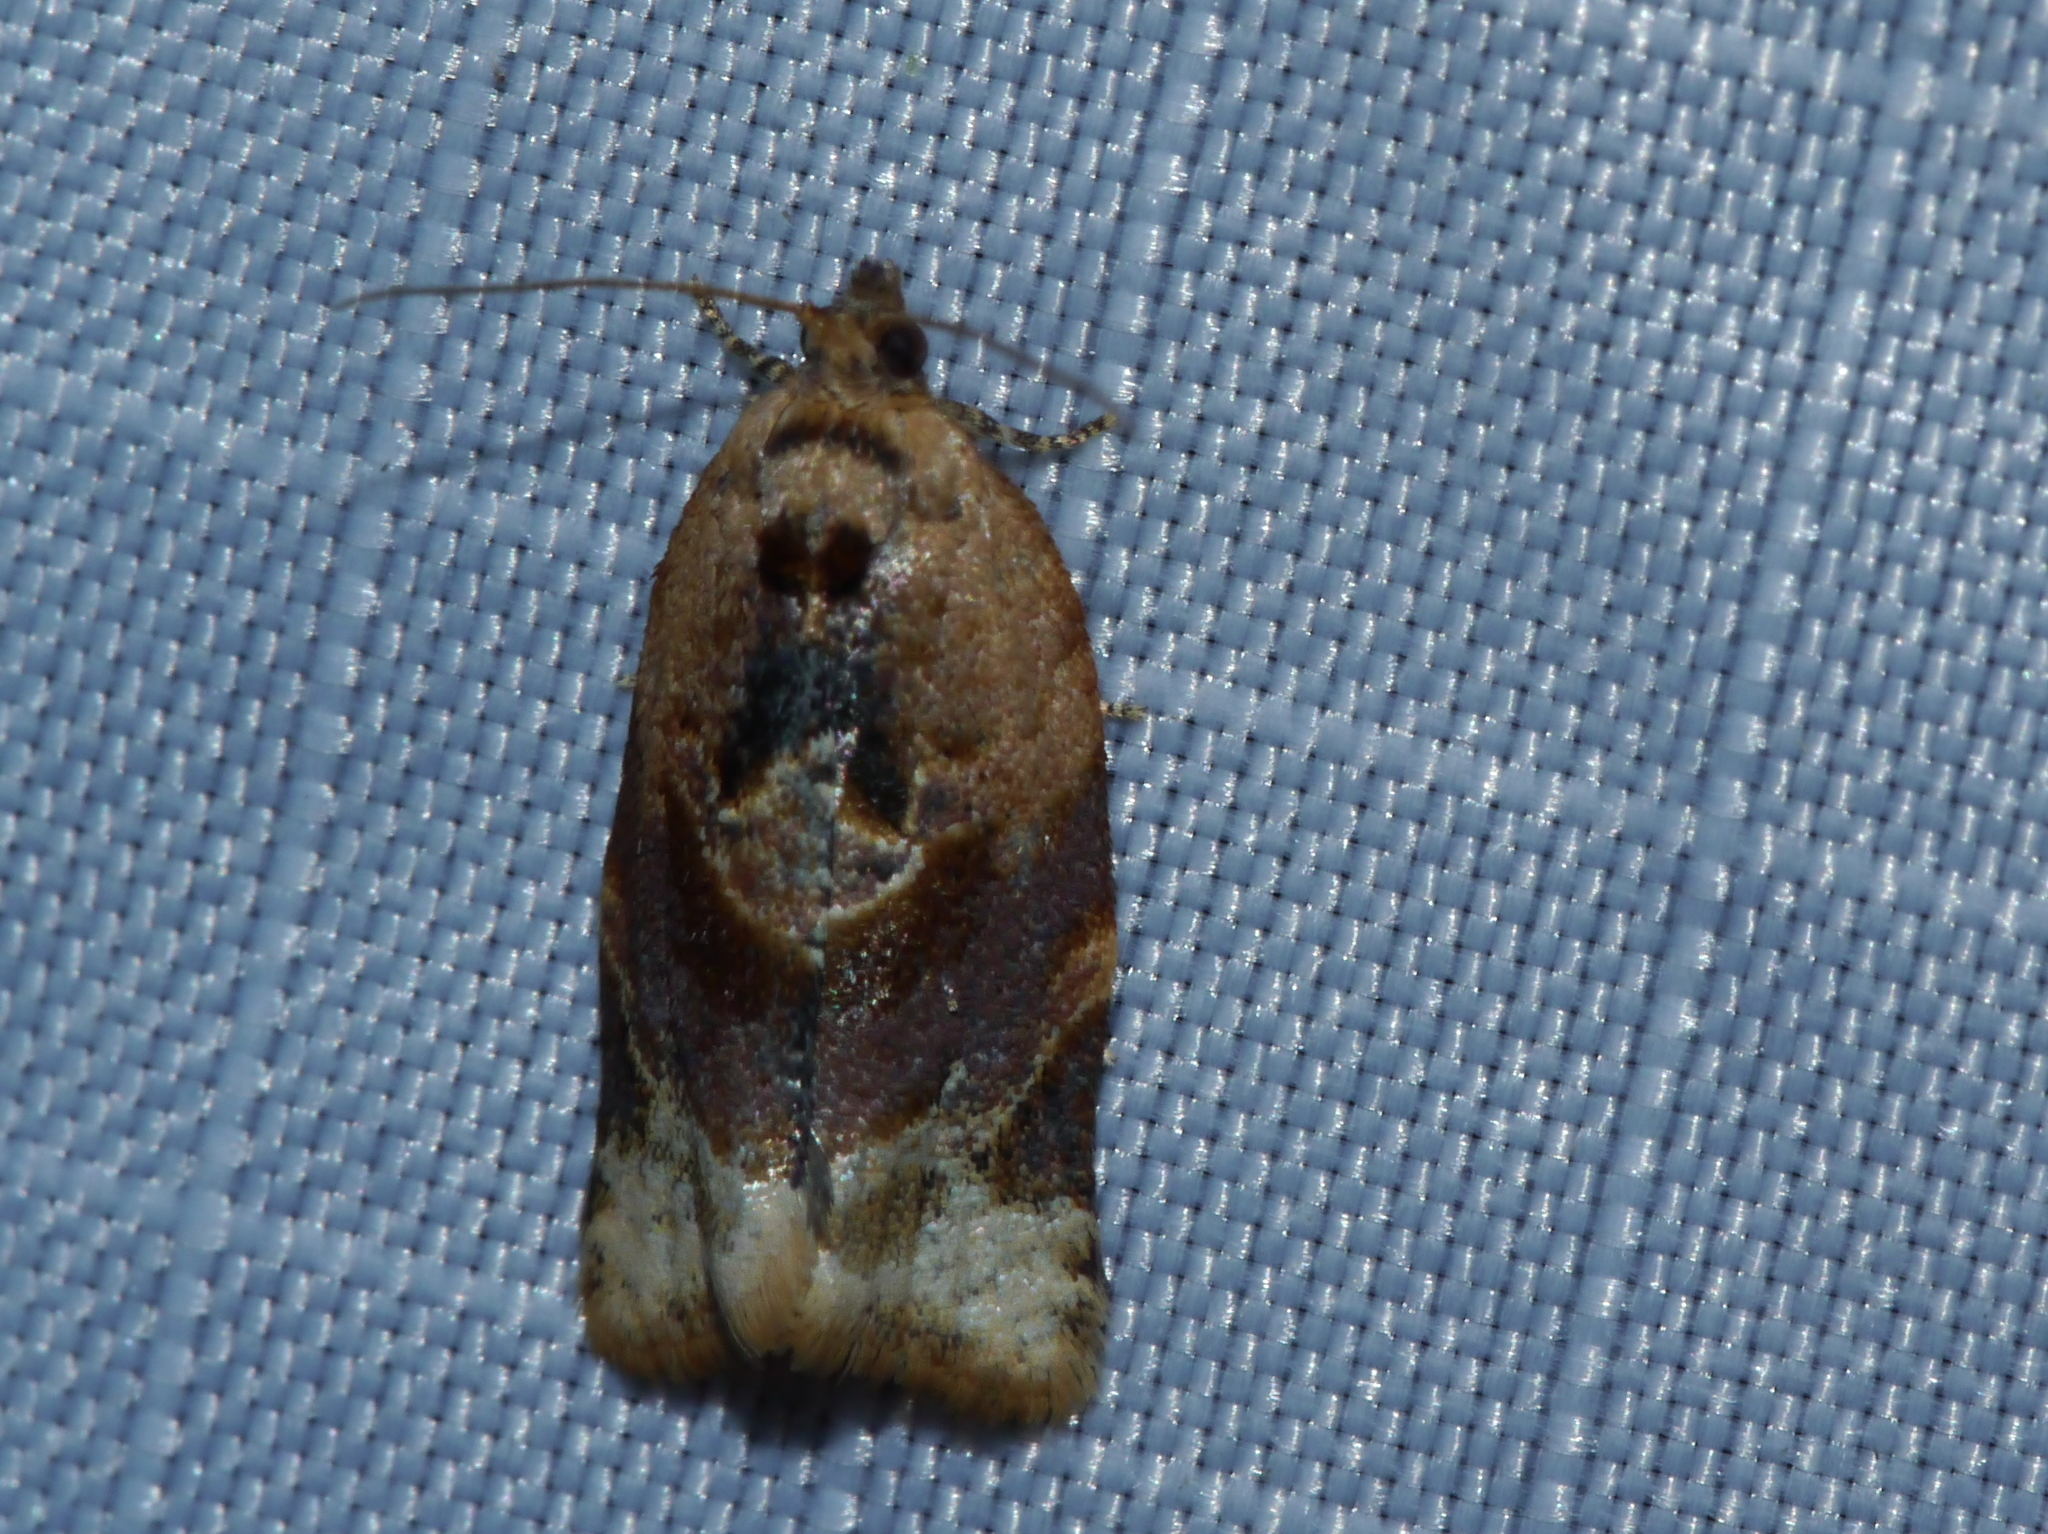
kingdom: Animalia
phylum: Arthropoda
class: Insecta
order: Lepidoptera
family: Tortricidae
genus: Argyrotaenia
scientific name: Argyrotaenia velutinana
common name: Red-banded leafroller moth
